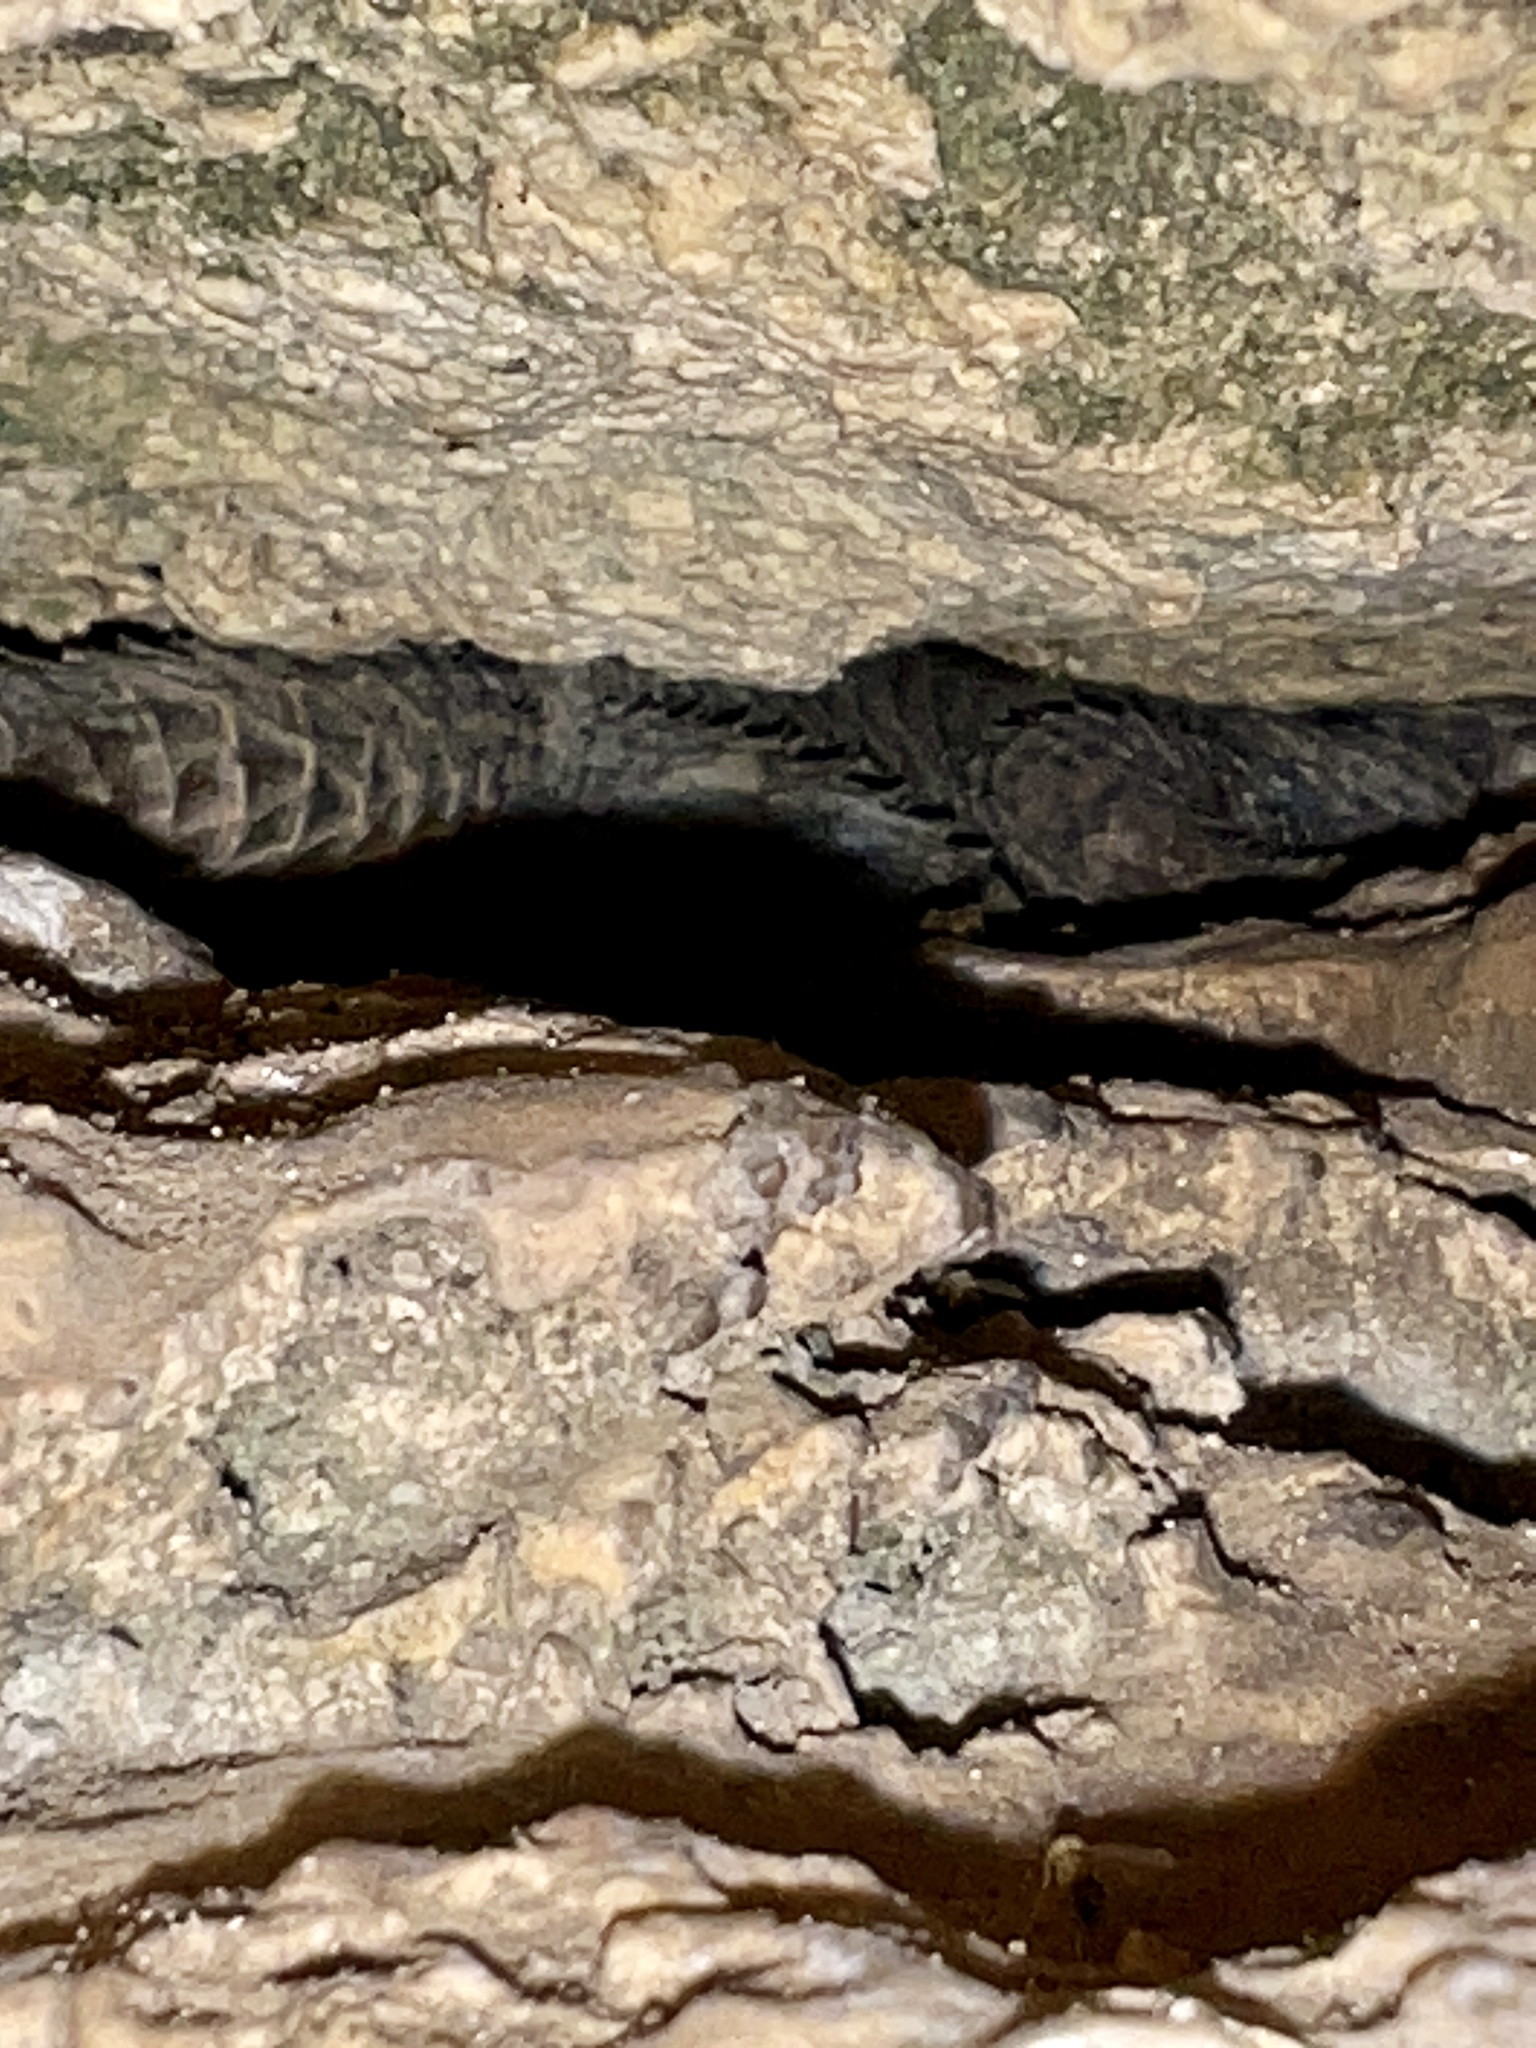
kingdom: Animalia
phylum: Chordata
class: Squamata
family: Phrynosomatidae
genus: Sceloporus
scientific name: Sceloporus poinsettii
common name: Crevice spiny lizard
